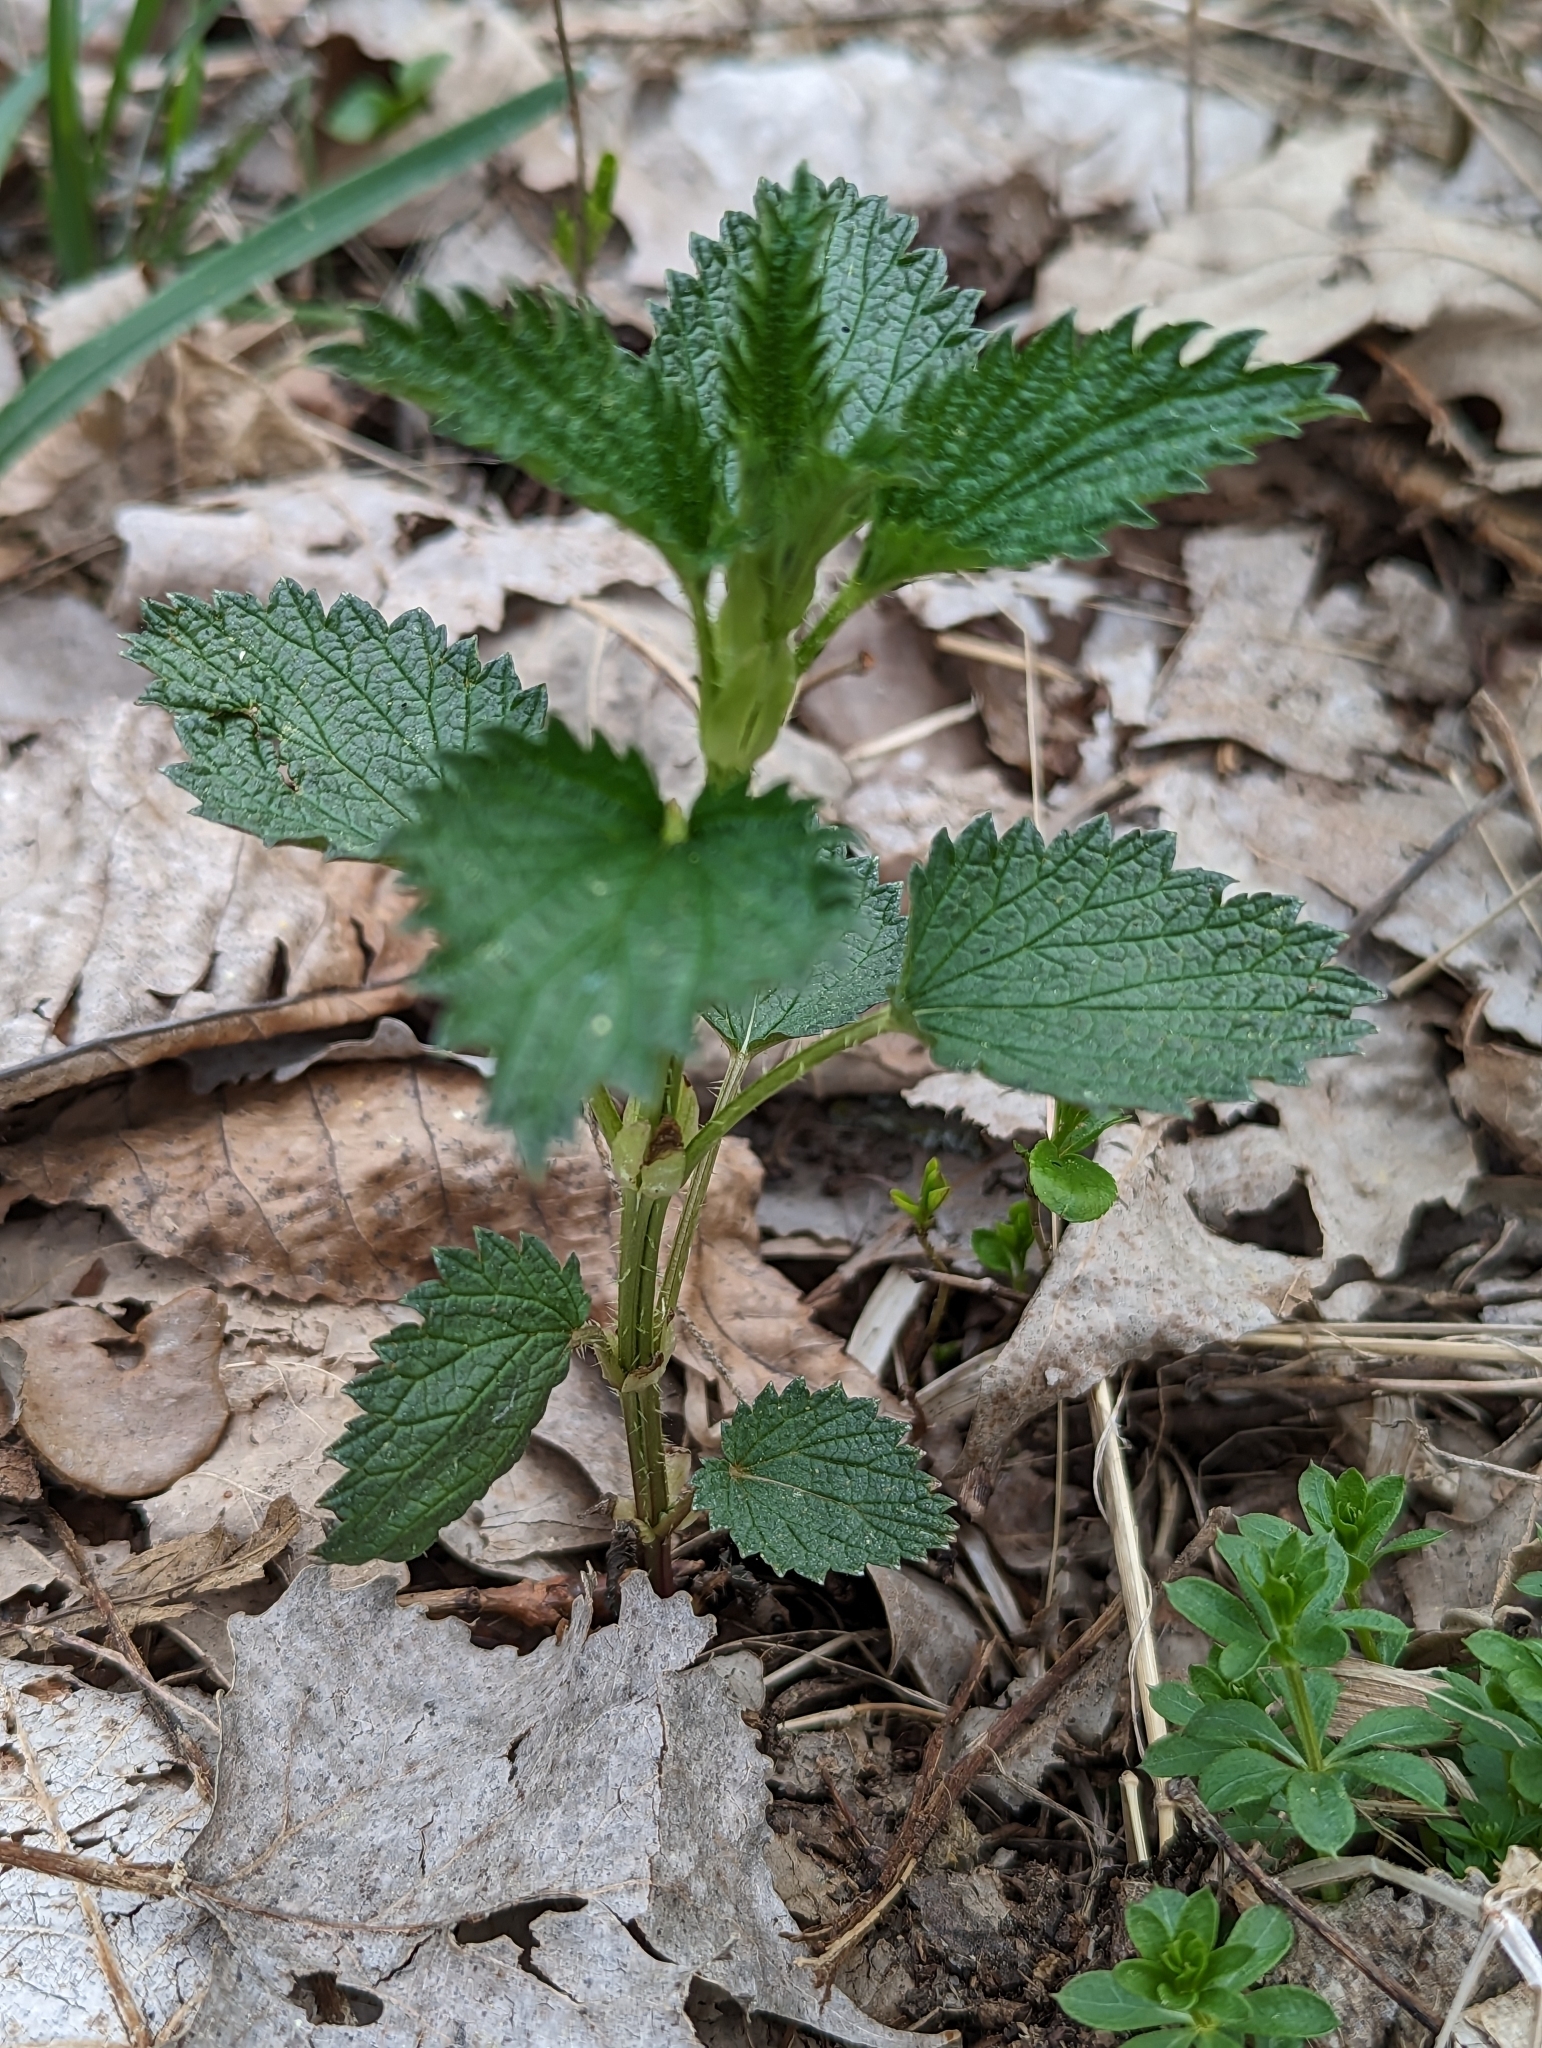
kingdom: Plantae
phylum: Tracheophyta
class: Magnoliopsida
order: Rosales
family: Urticaceae
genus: Urtica
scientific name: Urtica dioica
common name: Common nettle
